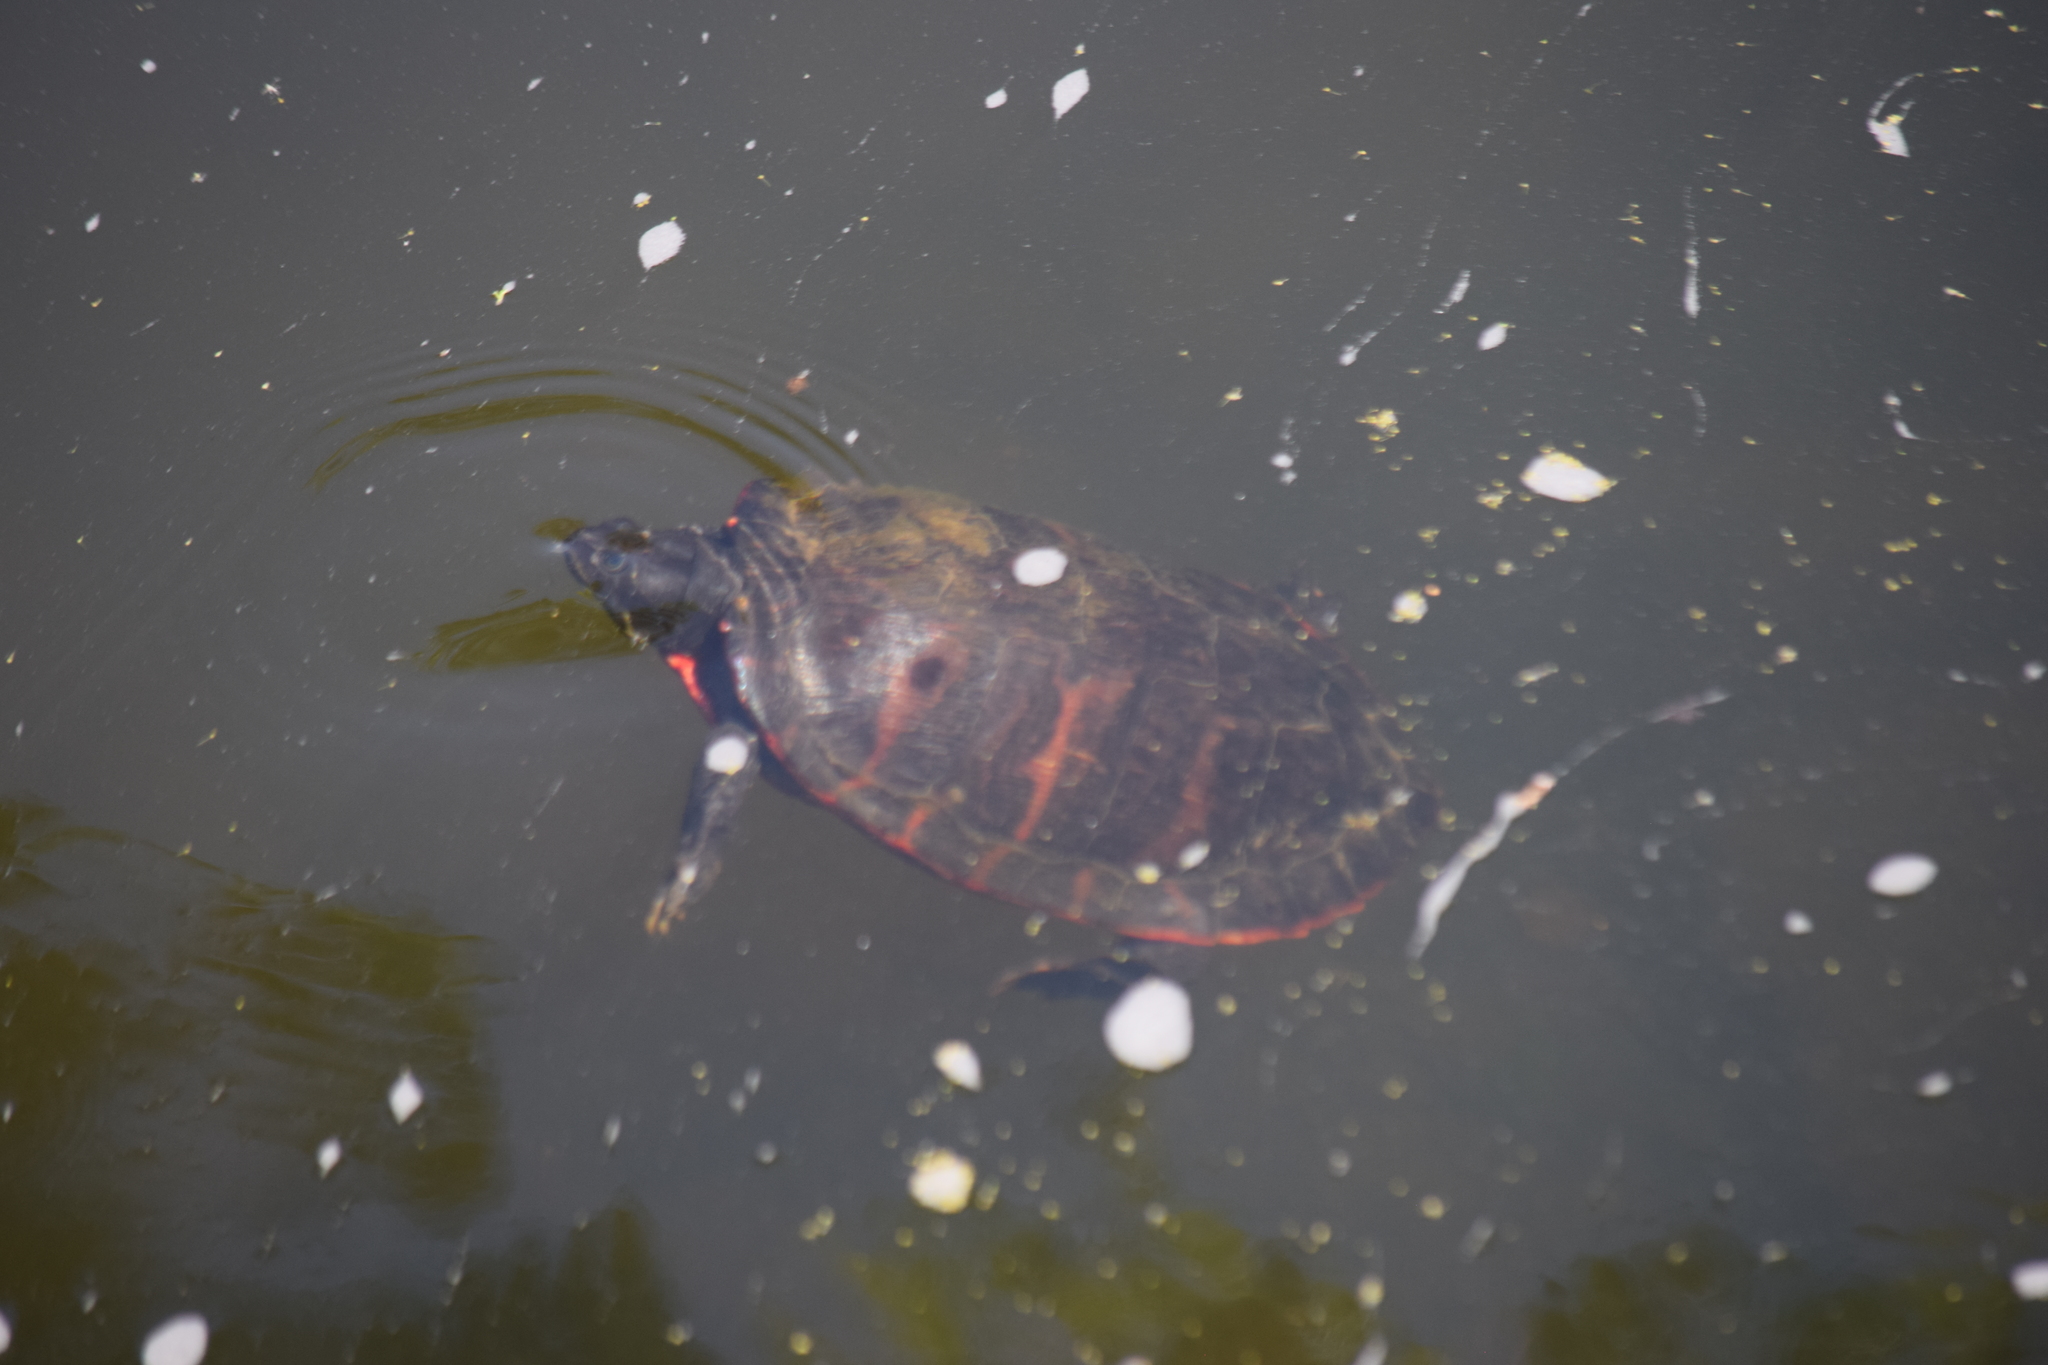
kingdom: Animalia
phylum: Chordata
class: Testudines
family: Emydidae
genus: Pseudemys
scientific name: Pseudemys rubriventris
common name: American red-bellied turtle
